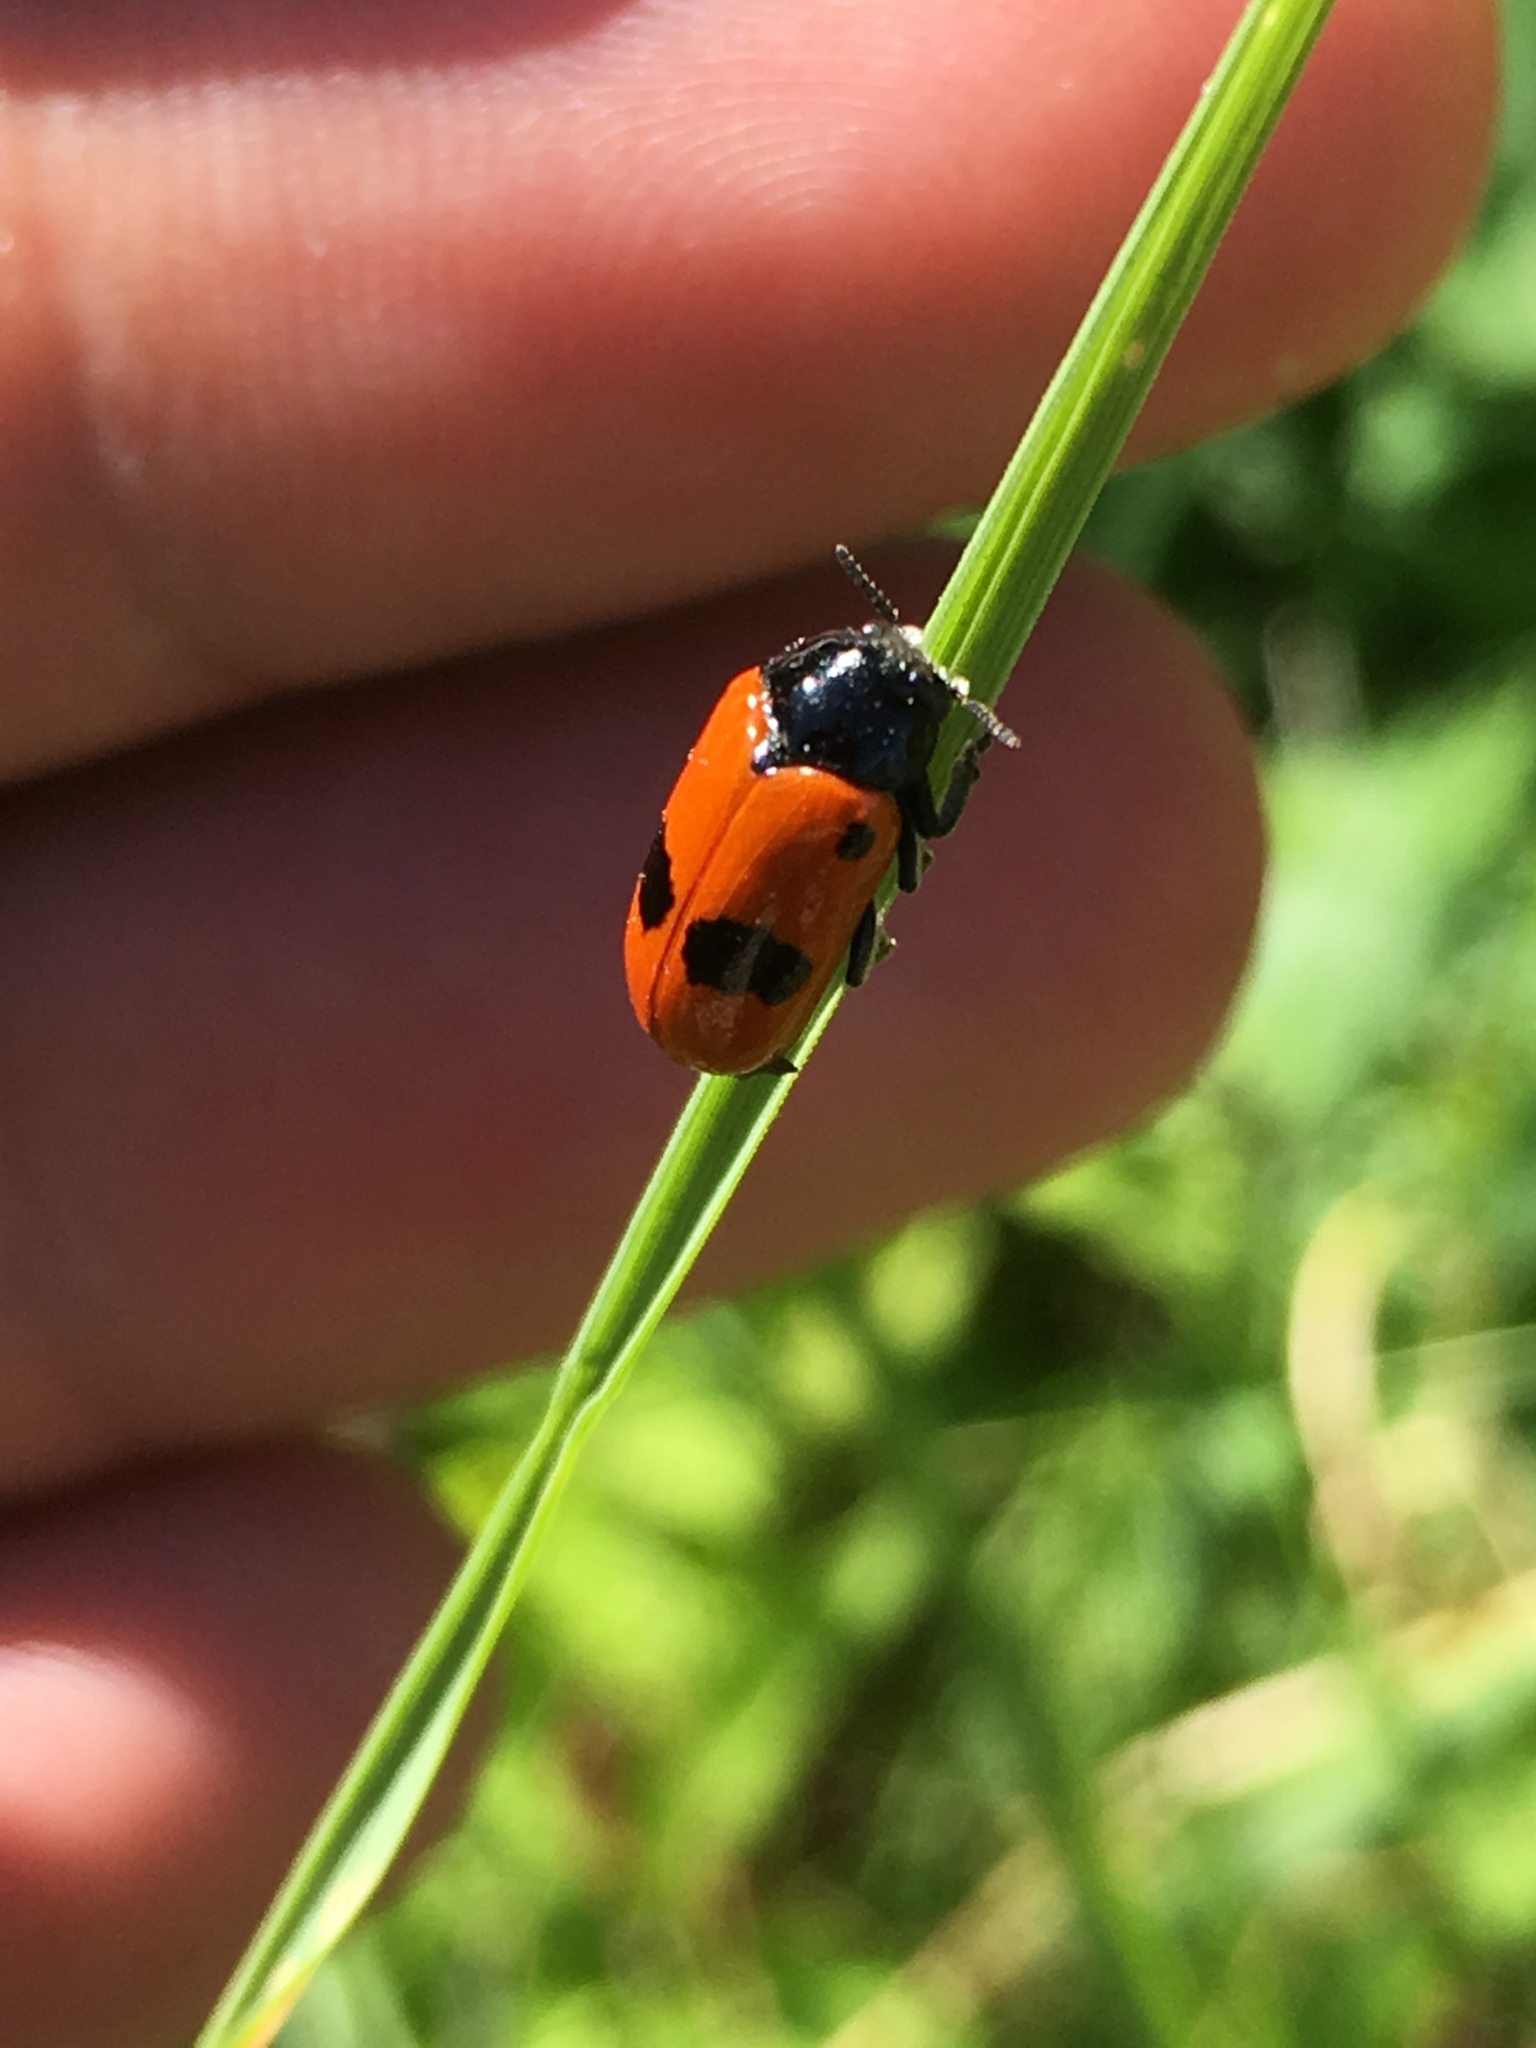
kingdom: Animalia
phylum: Arthropoda
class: Insecta
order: Coleoptera
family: Chrysomelidae
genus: Clytra
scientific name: Clytra laeviuscula
